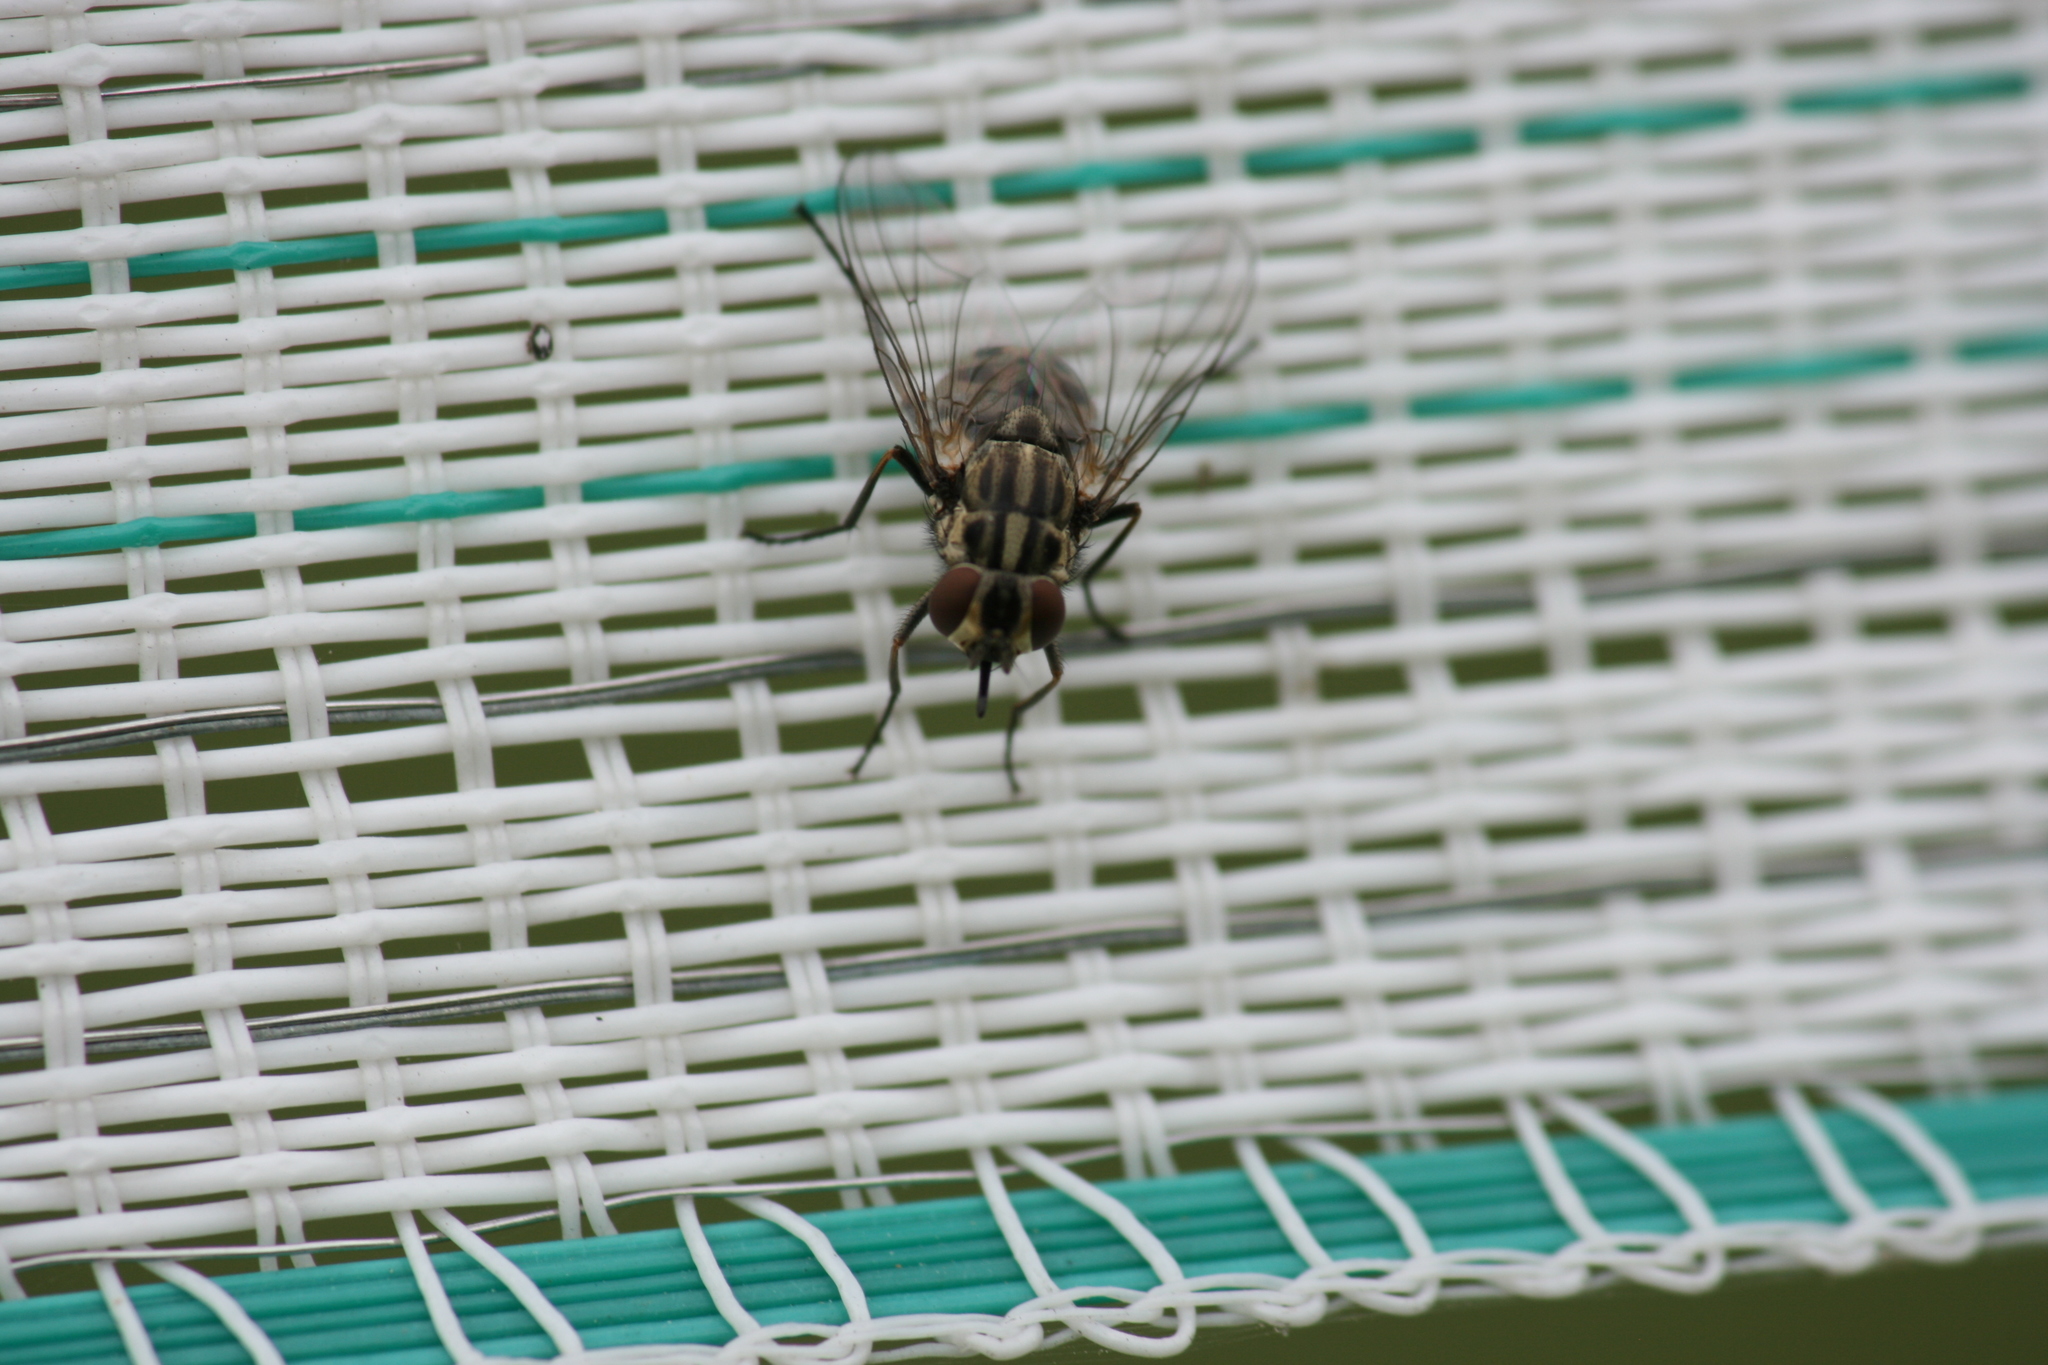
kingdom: Animalia
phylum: Arthropoda
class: Insecta
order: Diptera
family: Muscidae
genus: Stomoxys
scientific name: Stomoxys calcitrans
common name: Stable fly
